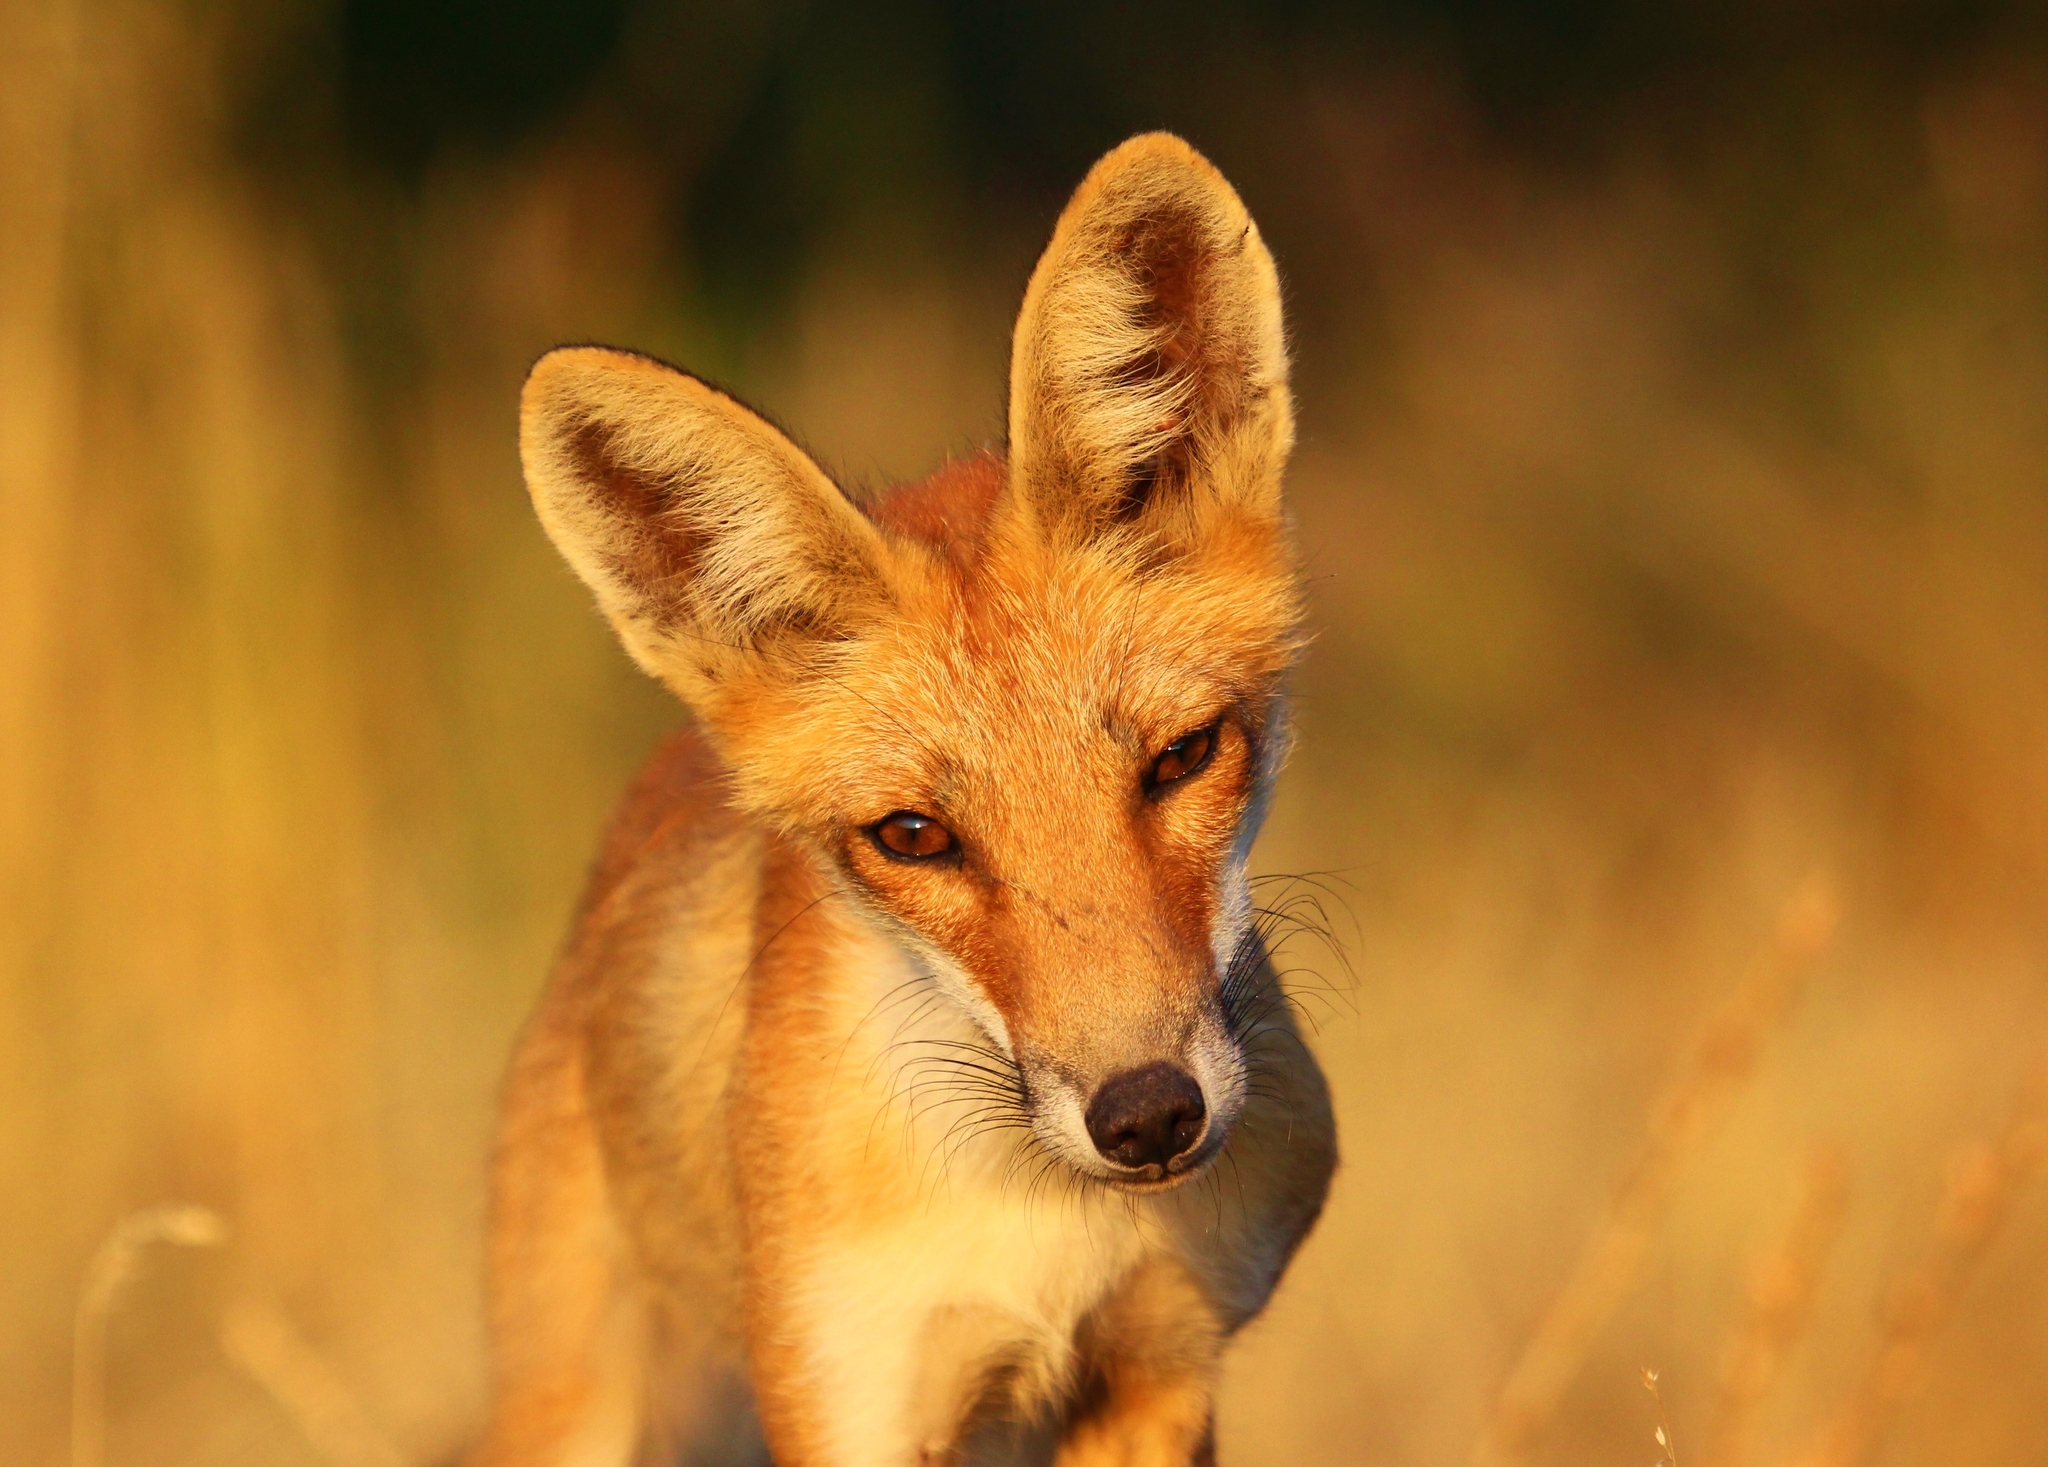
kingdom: Animalia
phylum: Chordata
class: Mammalia
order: Carnivora
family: Canidae
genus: Vulpes
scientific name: Vulpes vulpes
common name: Red fox
